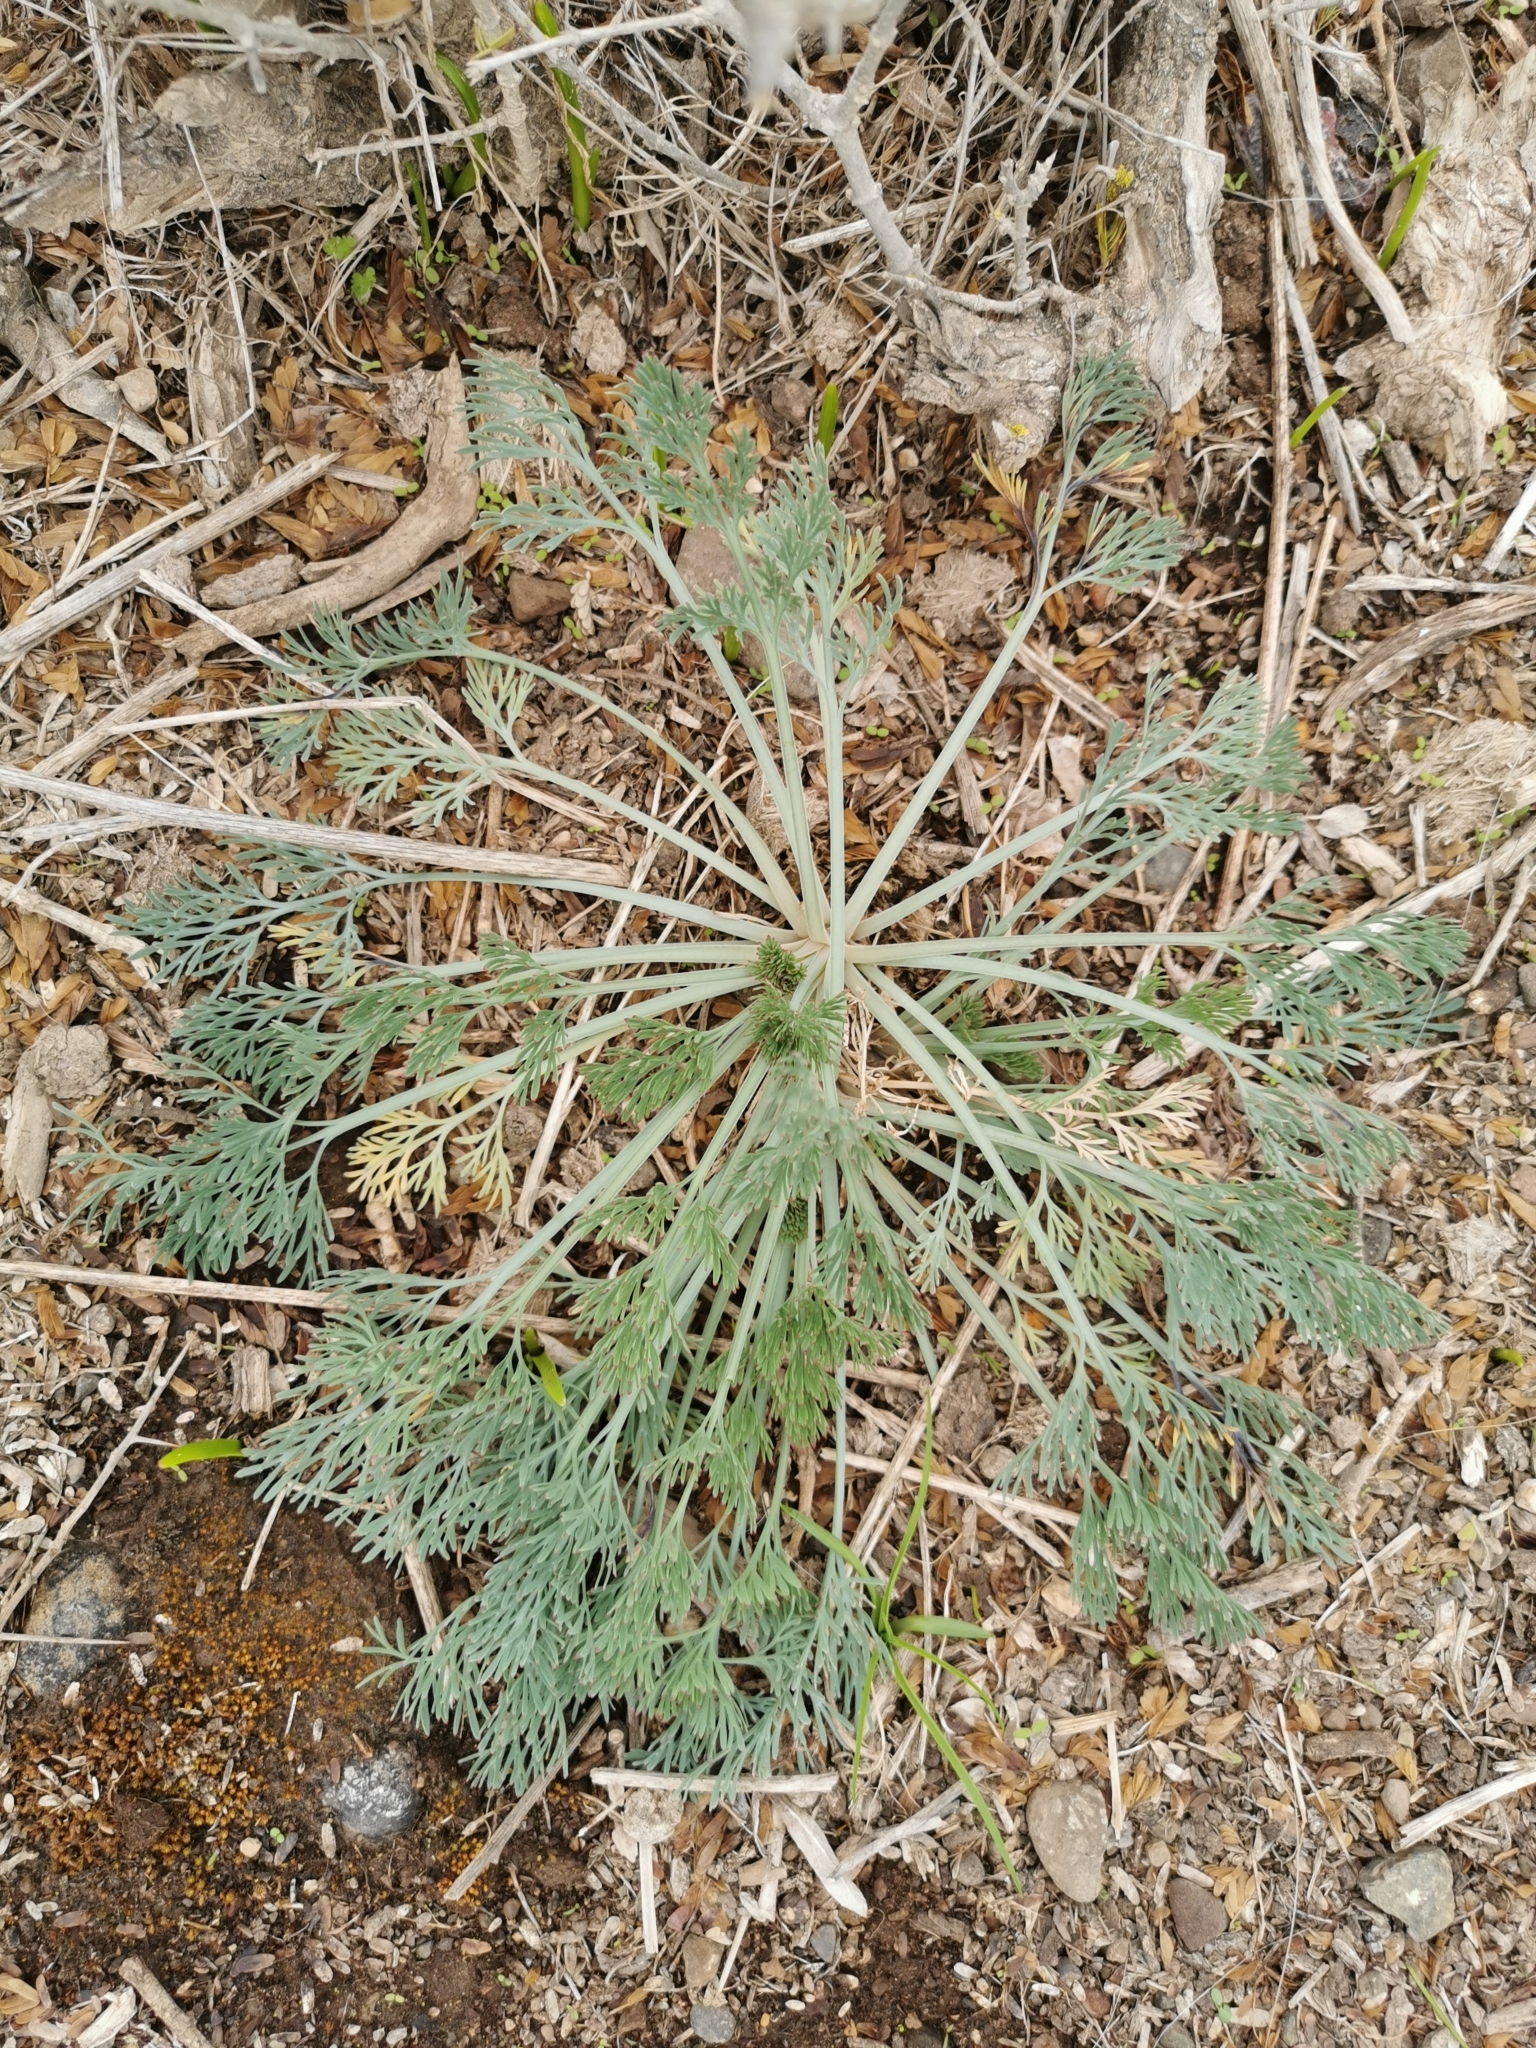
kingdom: Plantae
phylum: Tracheophyta
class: Magnoliopsida
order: Ranunculales
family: Papaveraceae
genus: Eschscholzia
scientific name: Eschscholzia californica
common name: California poppy
